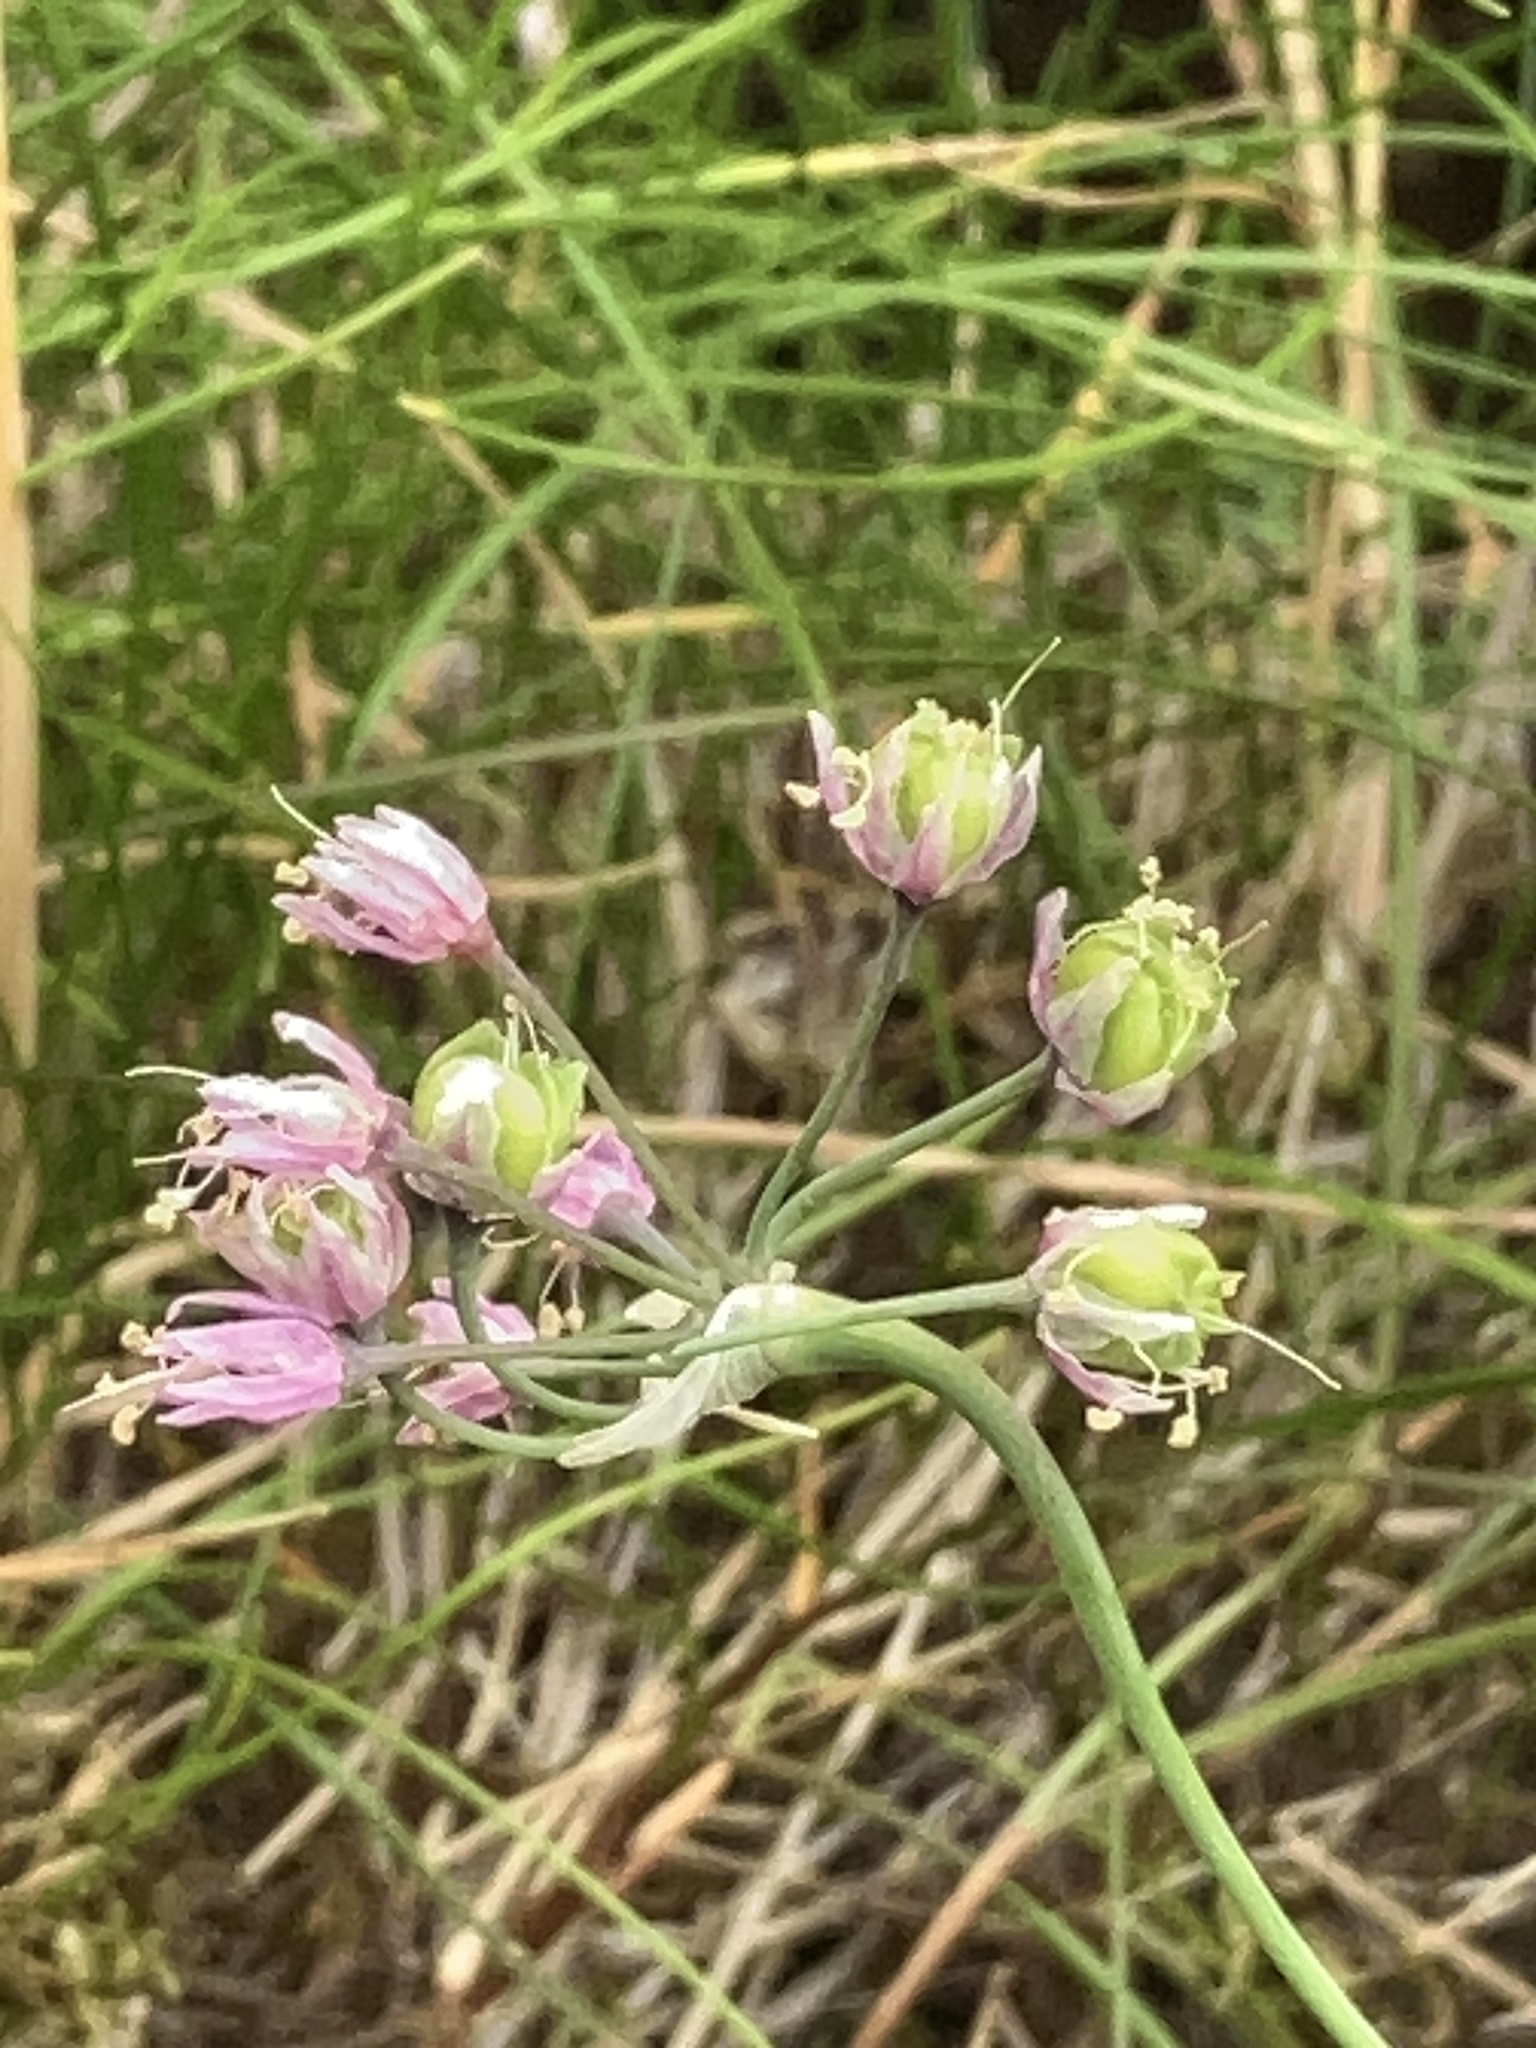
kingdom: Plantae
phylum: Tracheophyta
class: Liliopsida
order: Asparagales
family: Amaryllidaceae
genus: Allium
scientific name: Allium cernuum
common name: Nodding onion
